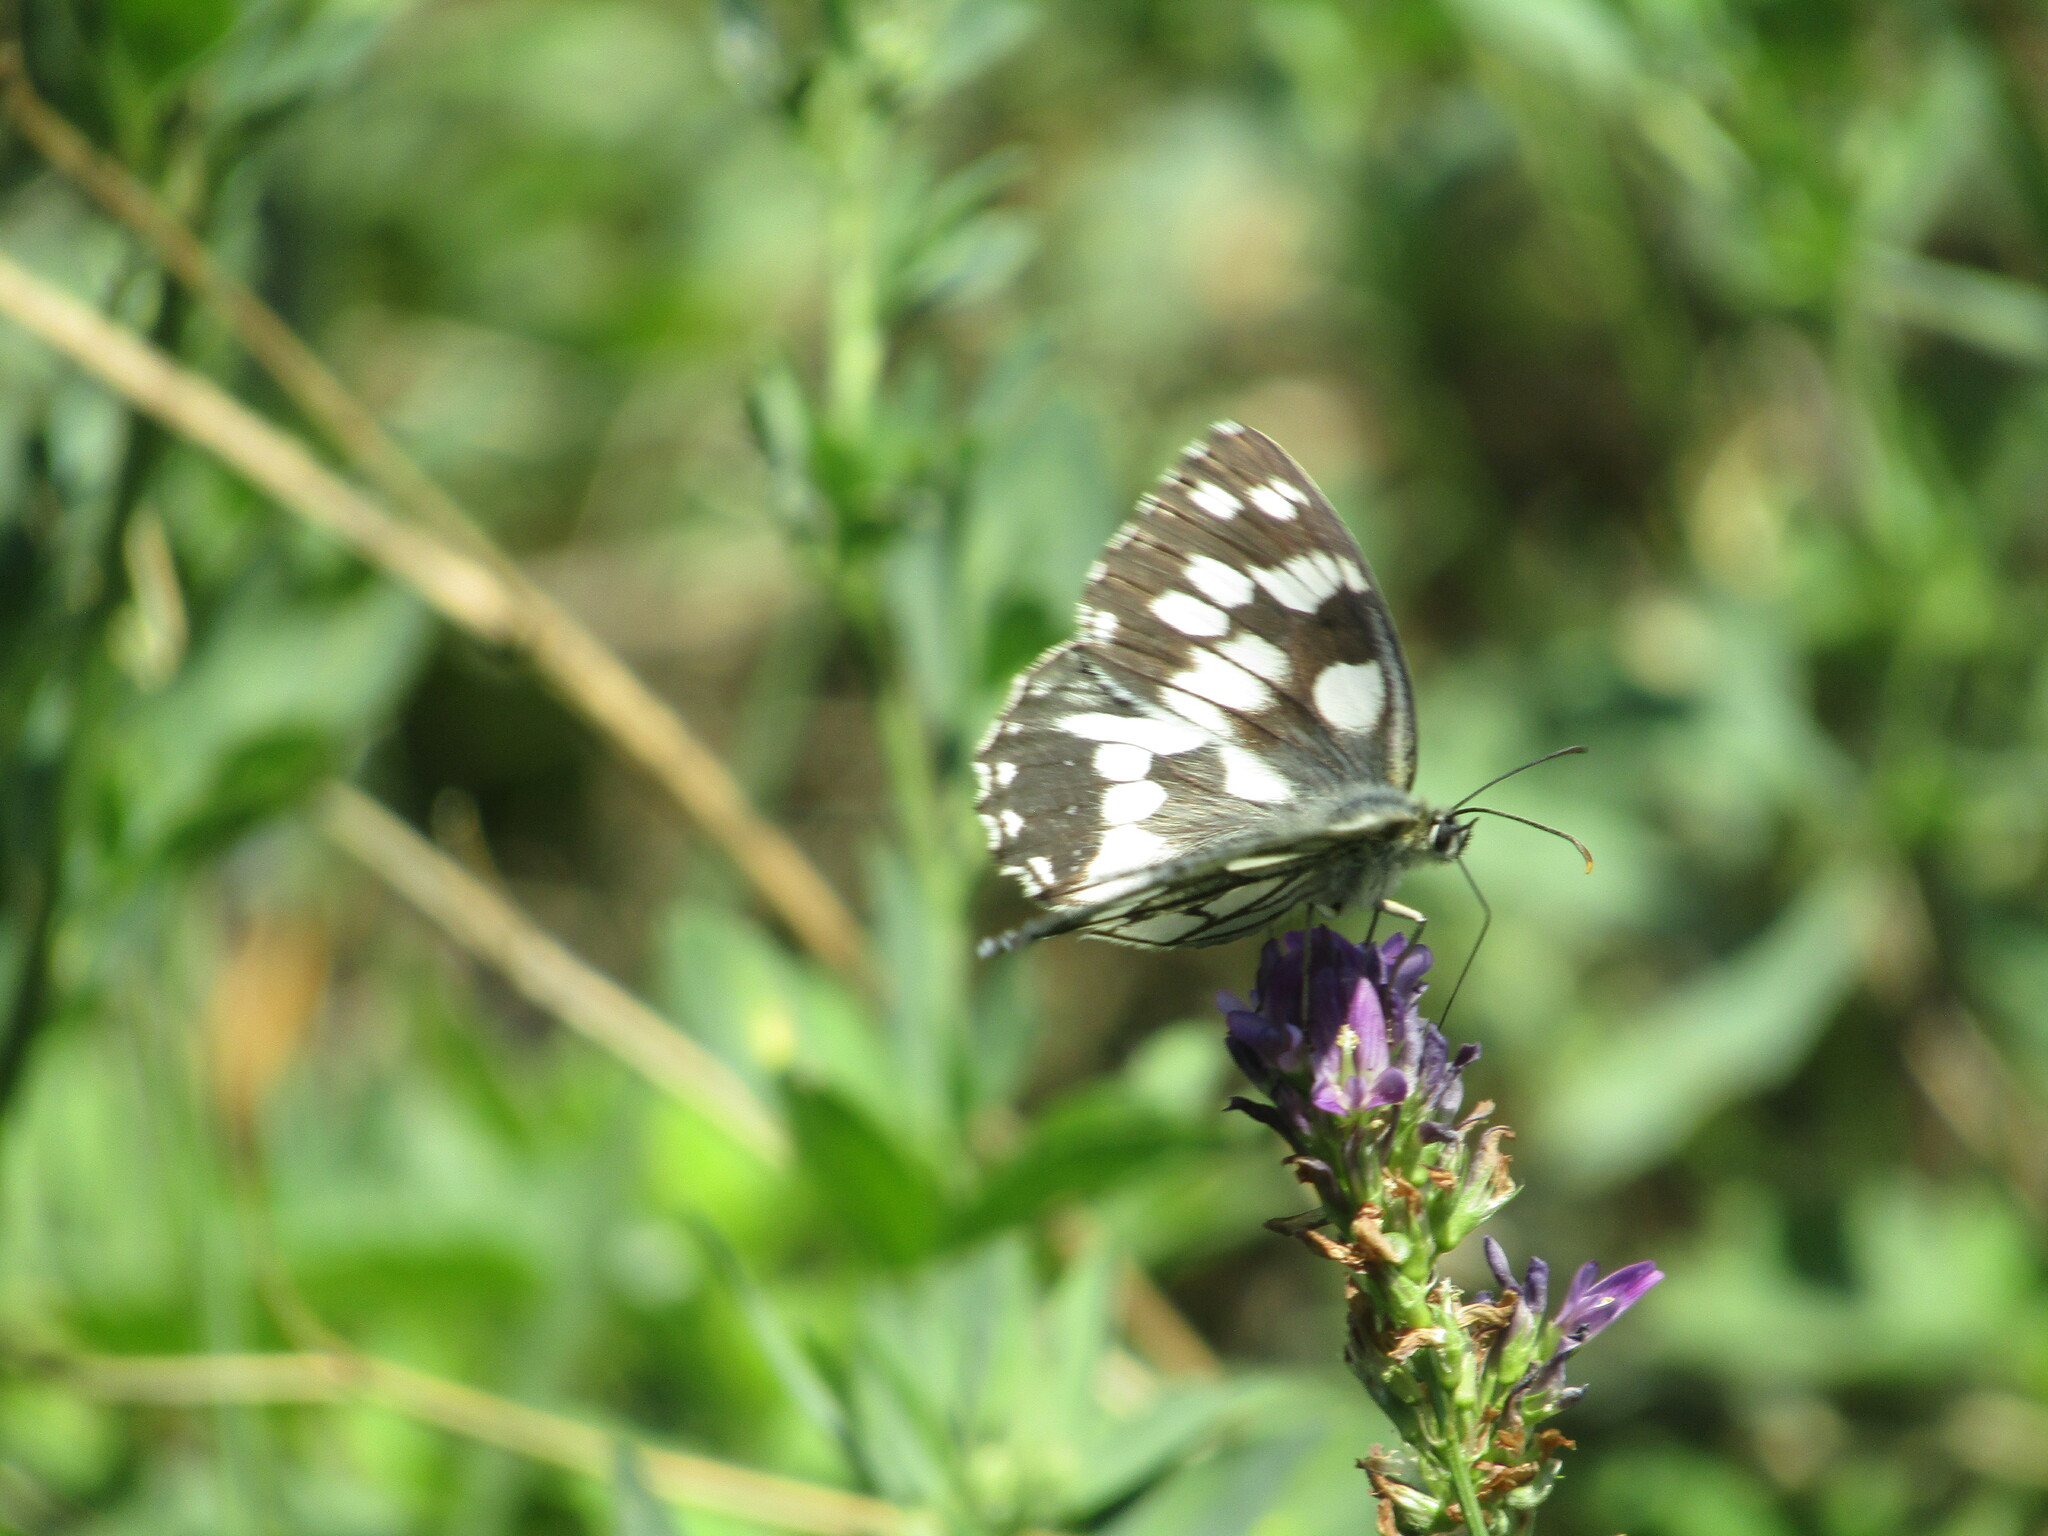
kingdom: Animalia
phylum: Arthropoda
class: Insecta
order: Lepidoptera
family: Nymphalidae
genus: Melanargia
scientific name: Melanargia galathea
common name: Marbled white
